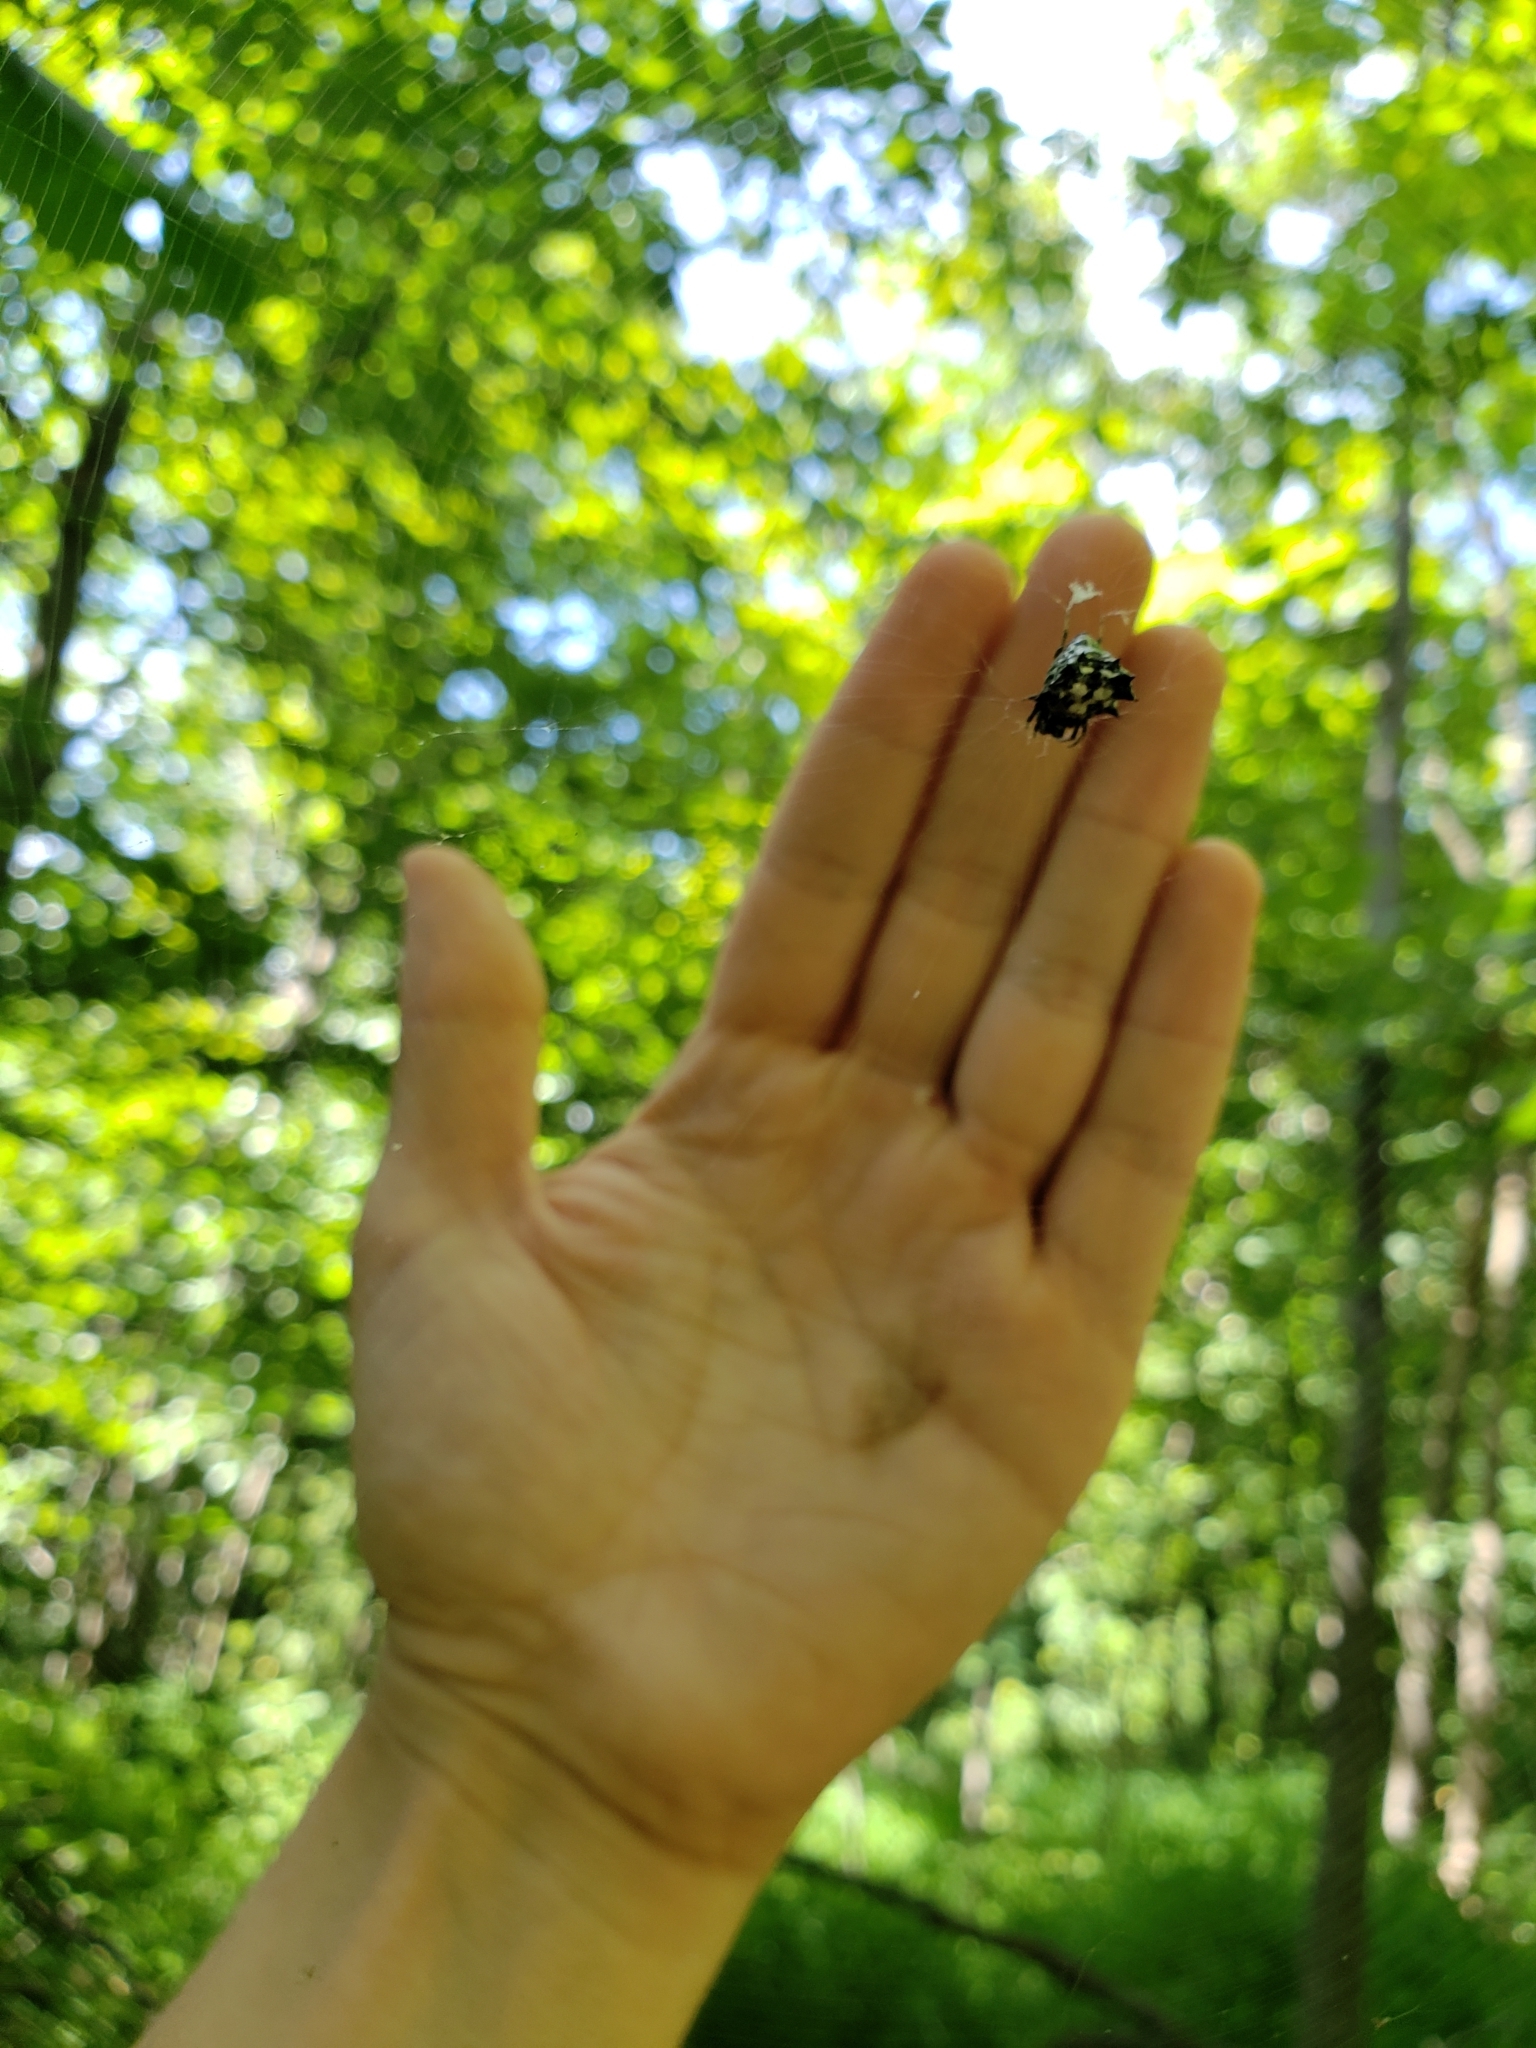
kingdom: Animalia
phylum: Arthropoda
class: Arachnida
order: Araneae
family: Araneidae
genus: Micrathena
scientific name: Micrathena gracilis
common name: Orb weavers
